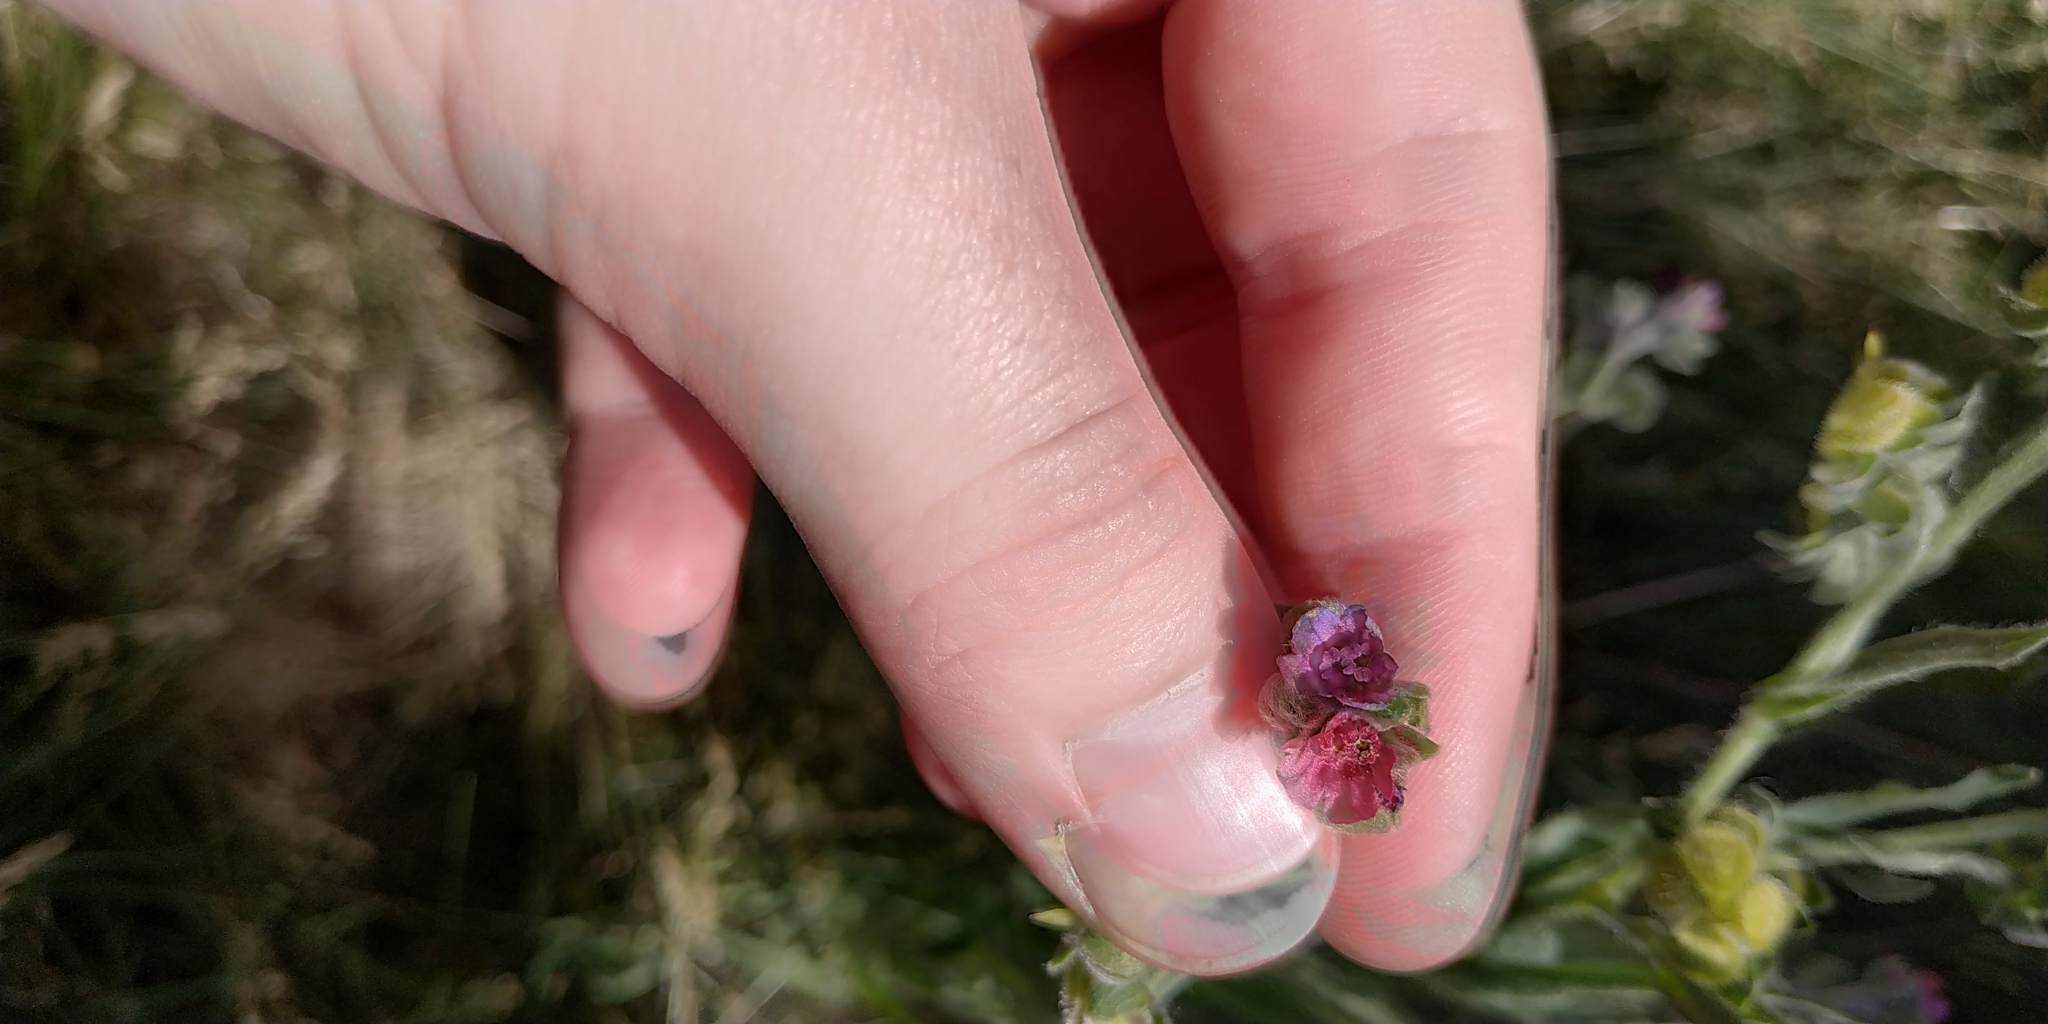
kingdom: Plantae
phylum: Tracheophyta
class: Magnoliopsida
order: Boraginales
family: Boraginaceae
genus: Cynoglossum
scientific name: Cynoglossum officinale
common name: Hound's-tongue
